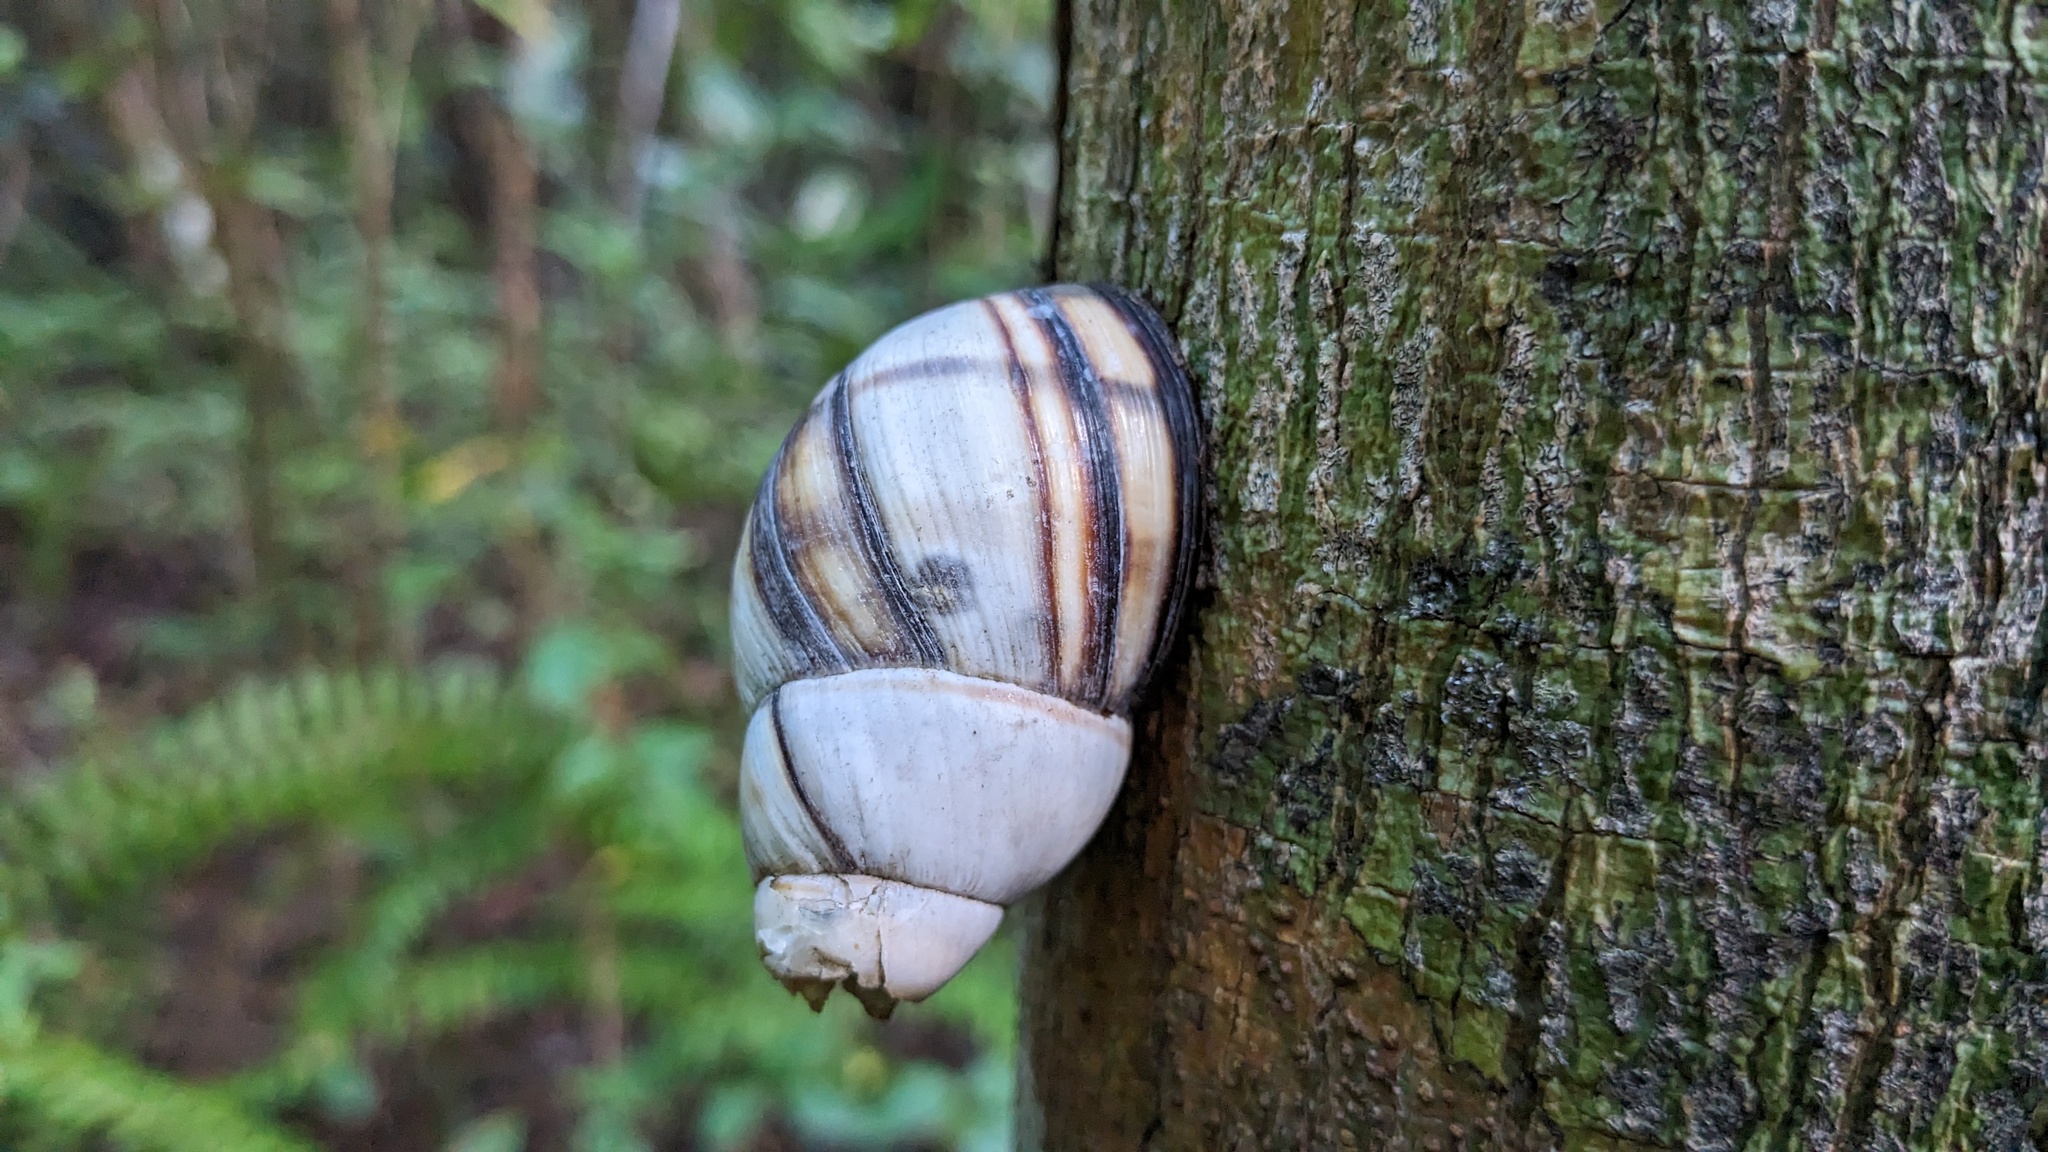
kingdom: Animalia
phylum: Mollusca
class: Gastropoda
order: Stylommatophora
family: Orthalicidae
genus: Orthalicus
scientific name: Orthalicus floridensis
